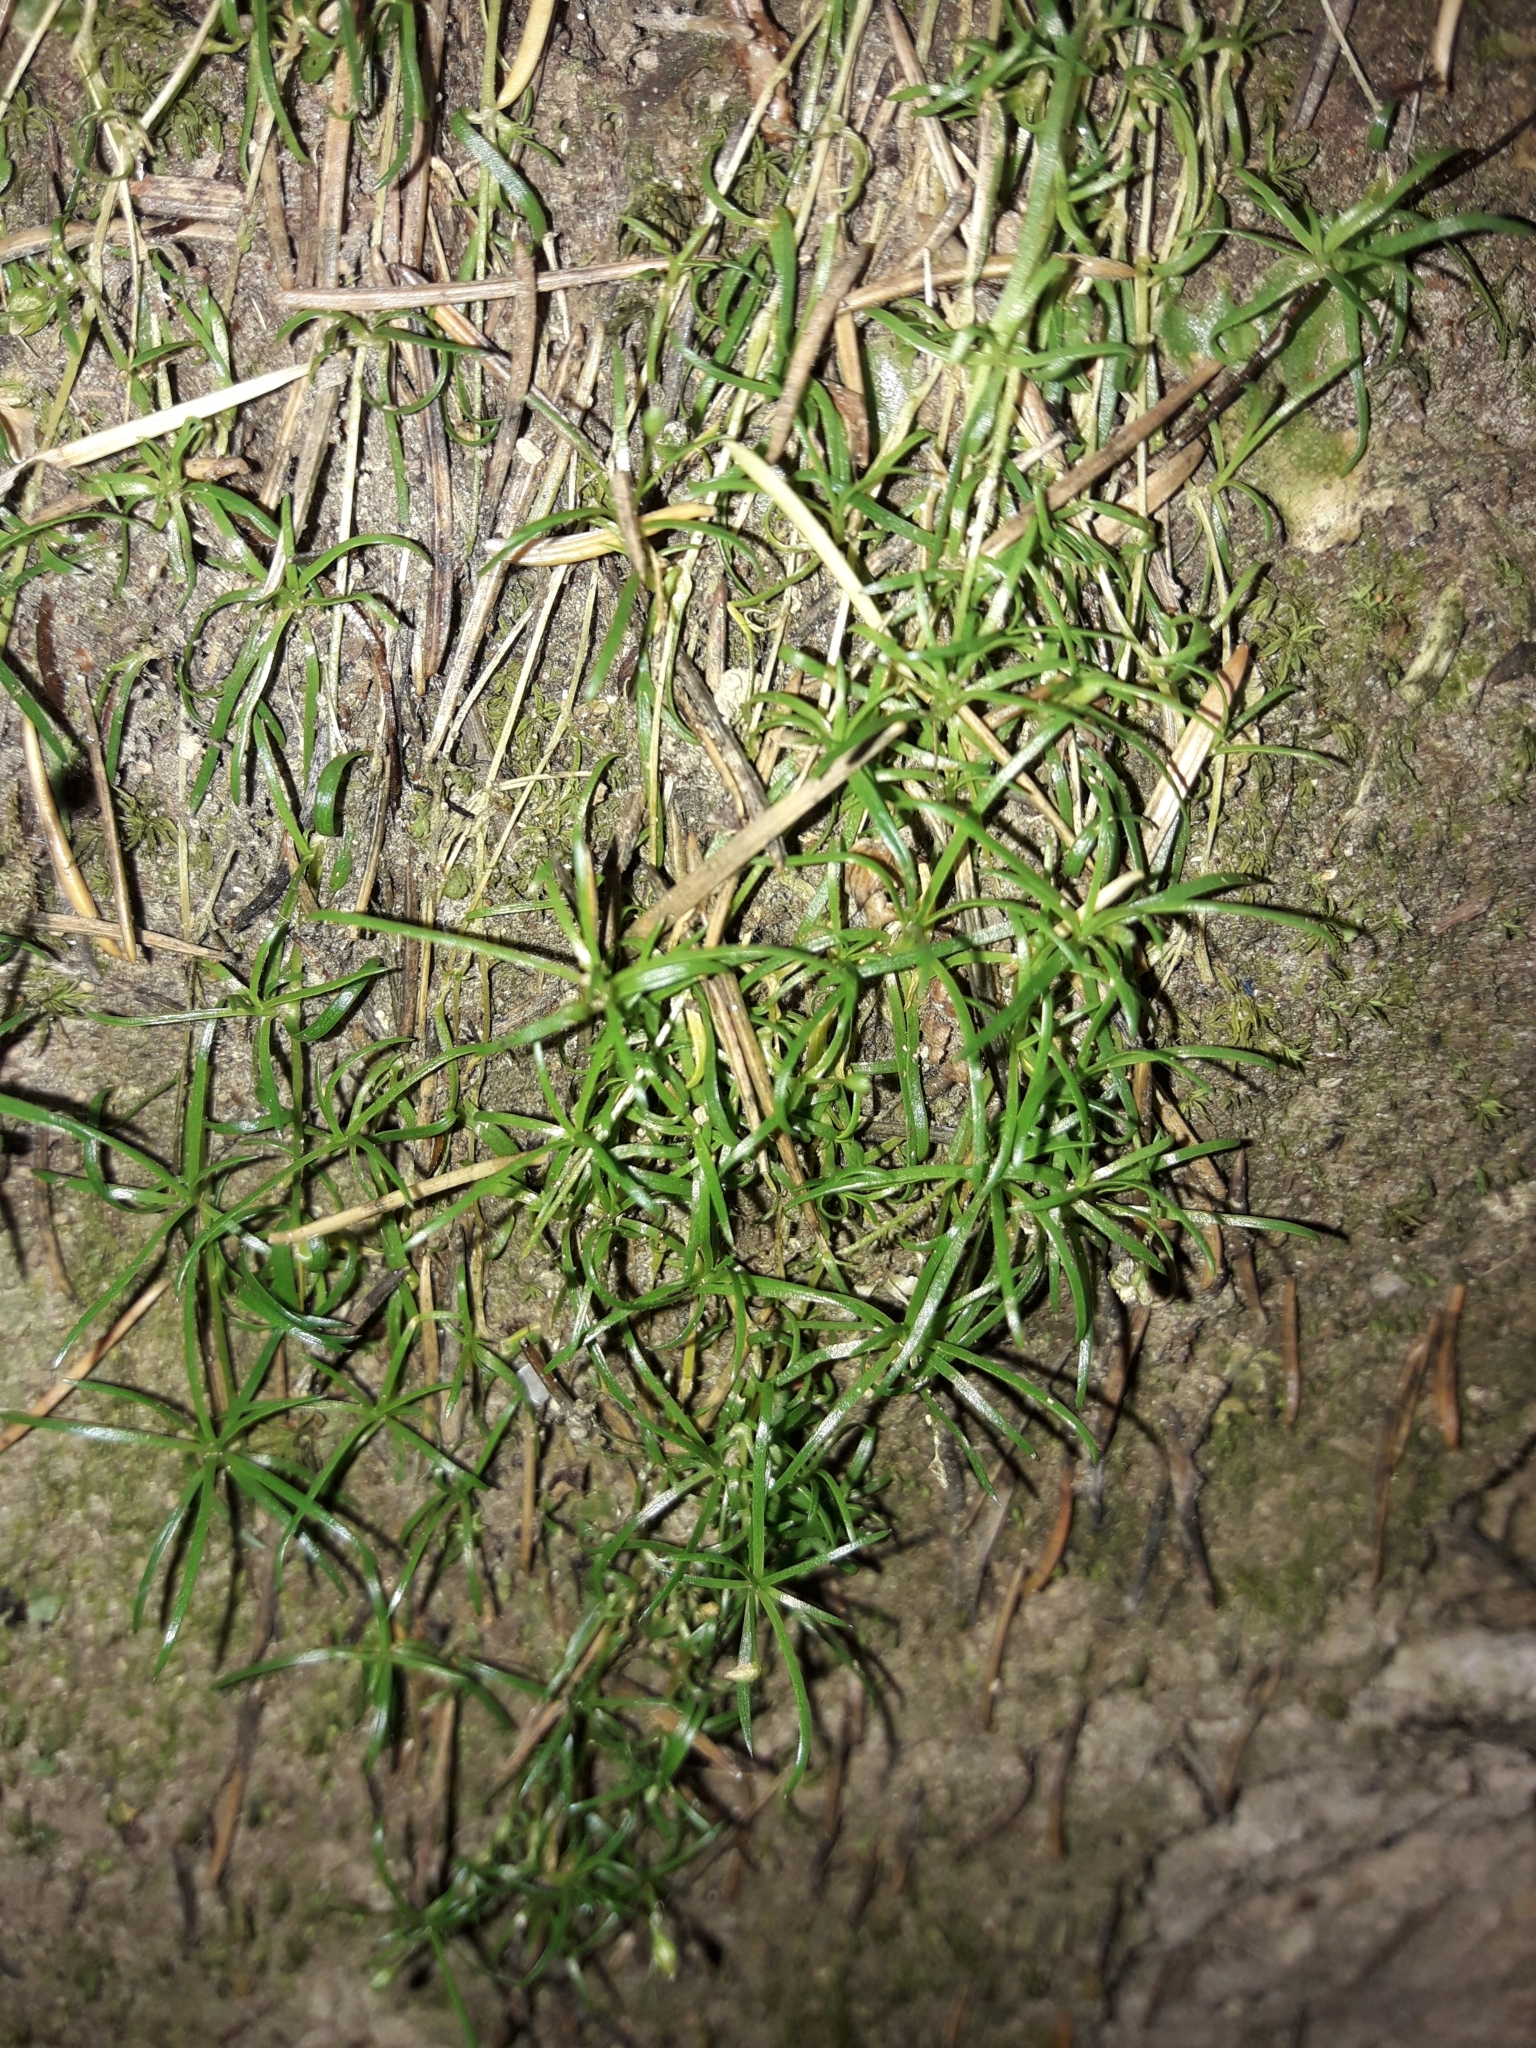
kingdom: Plantae
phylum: Tracheophyta
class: Magnoliopsida
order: Caryophyllales
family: Caryophyllaceae
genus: Sagina
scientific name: Sagina procumbens
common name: Procumbent pearlwort
